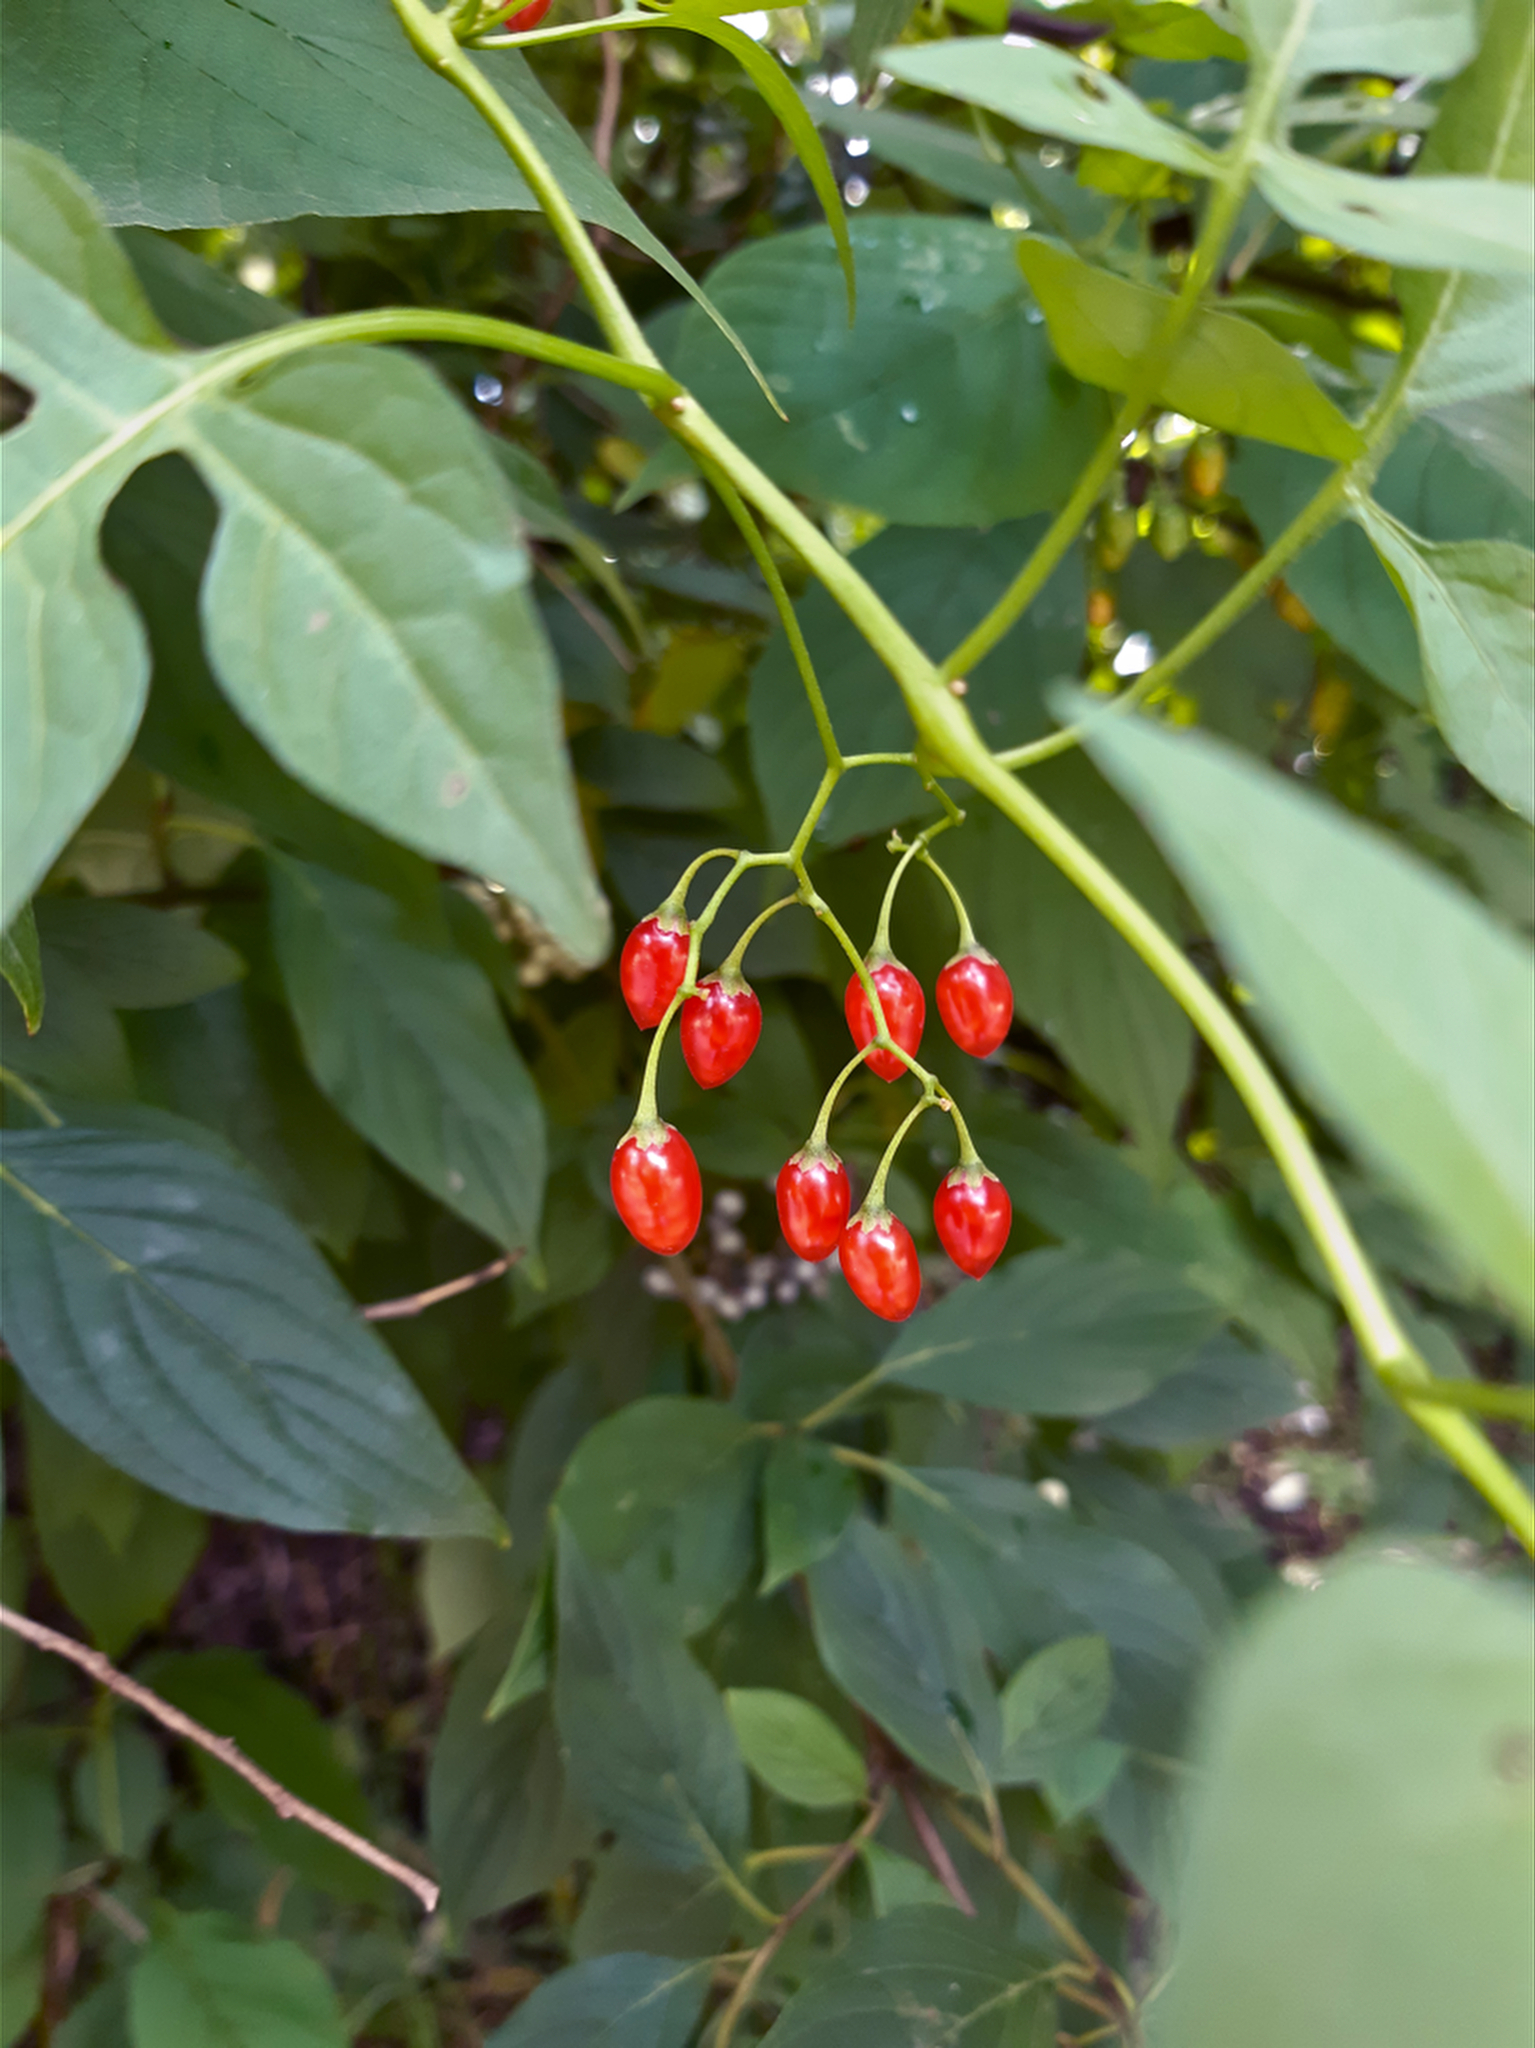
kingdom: Plantae
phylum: Tracheophyta
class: Magnoliopsida
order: Solanales
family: Solanaceae
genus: Solanum
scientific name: Solanum dulcamara
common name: Climbing nightshade
